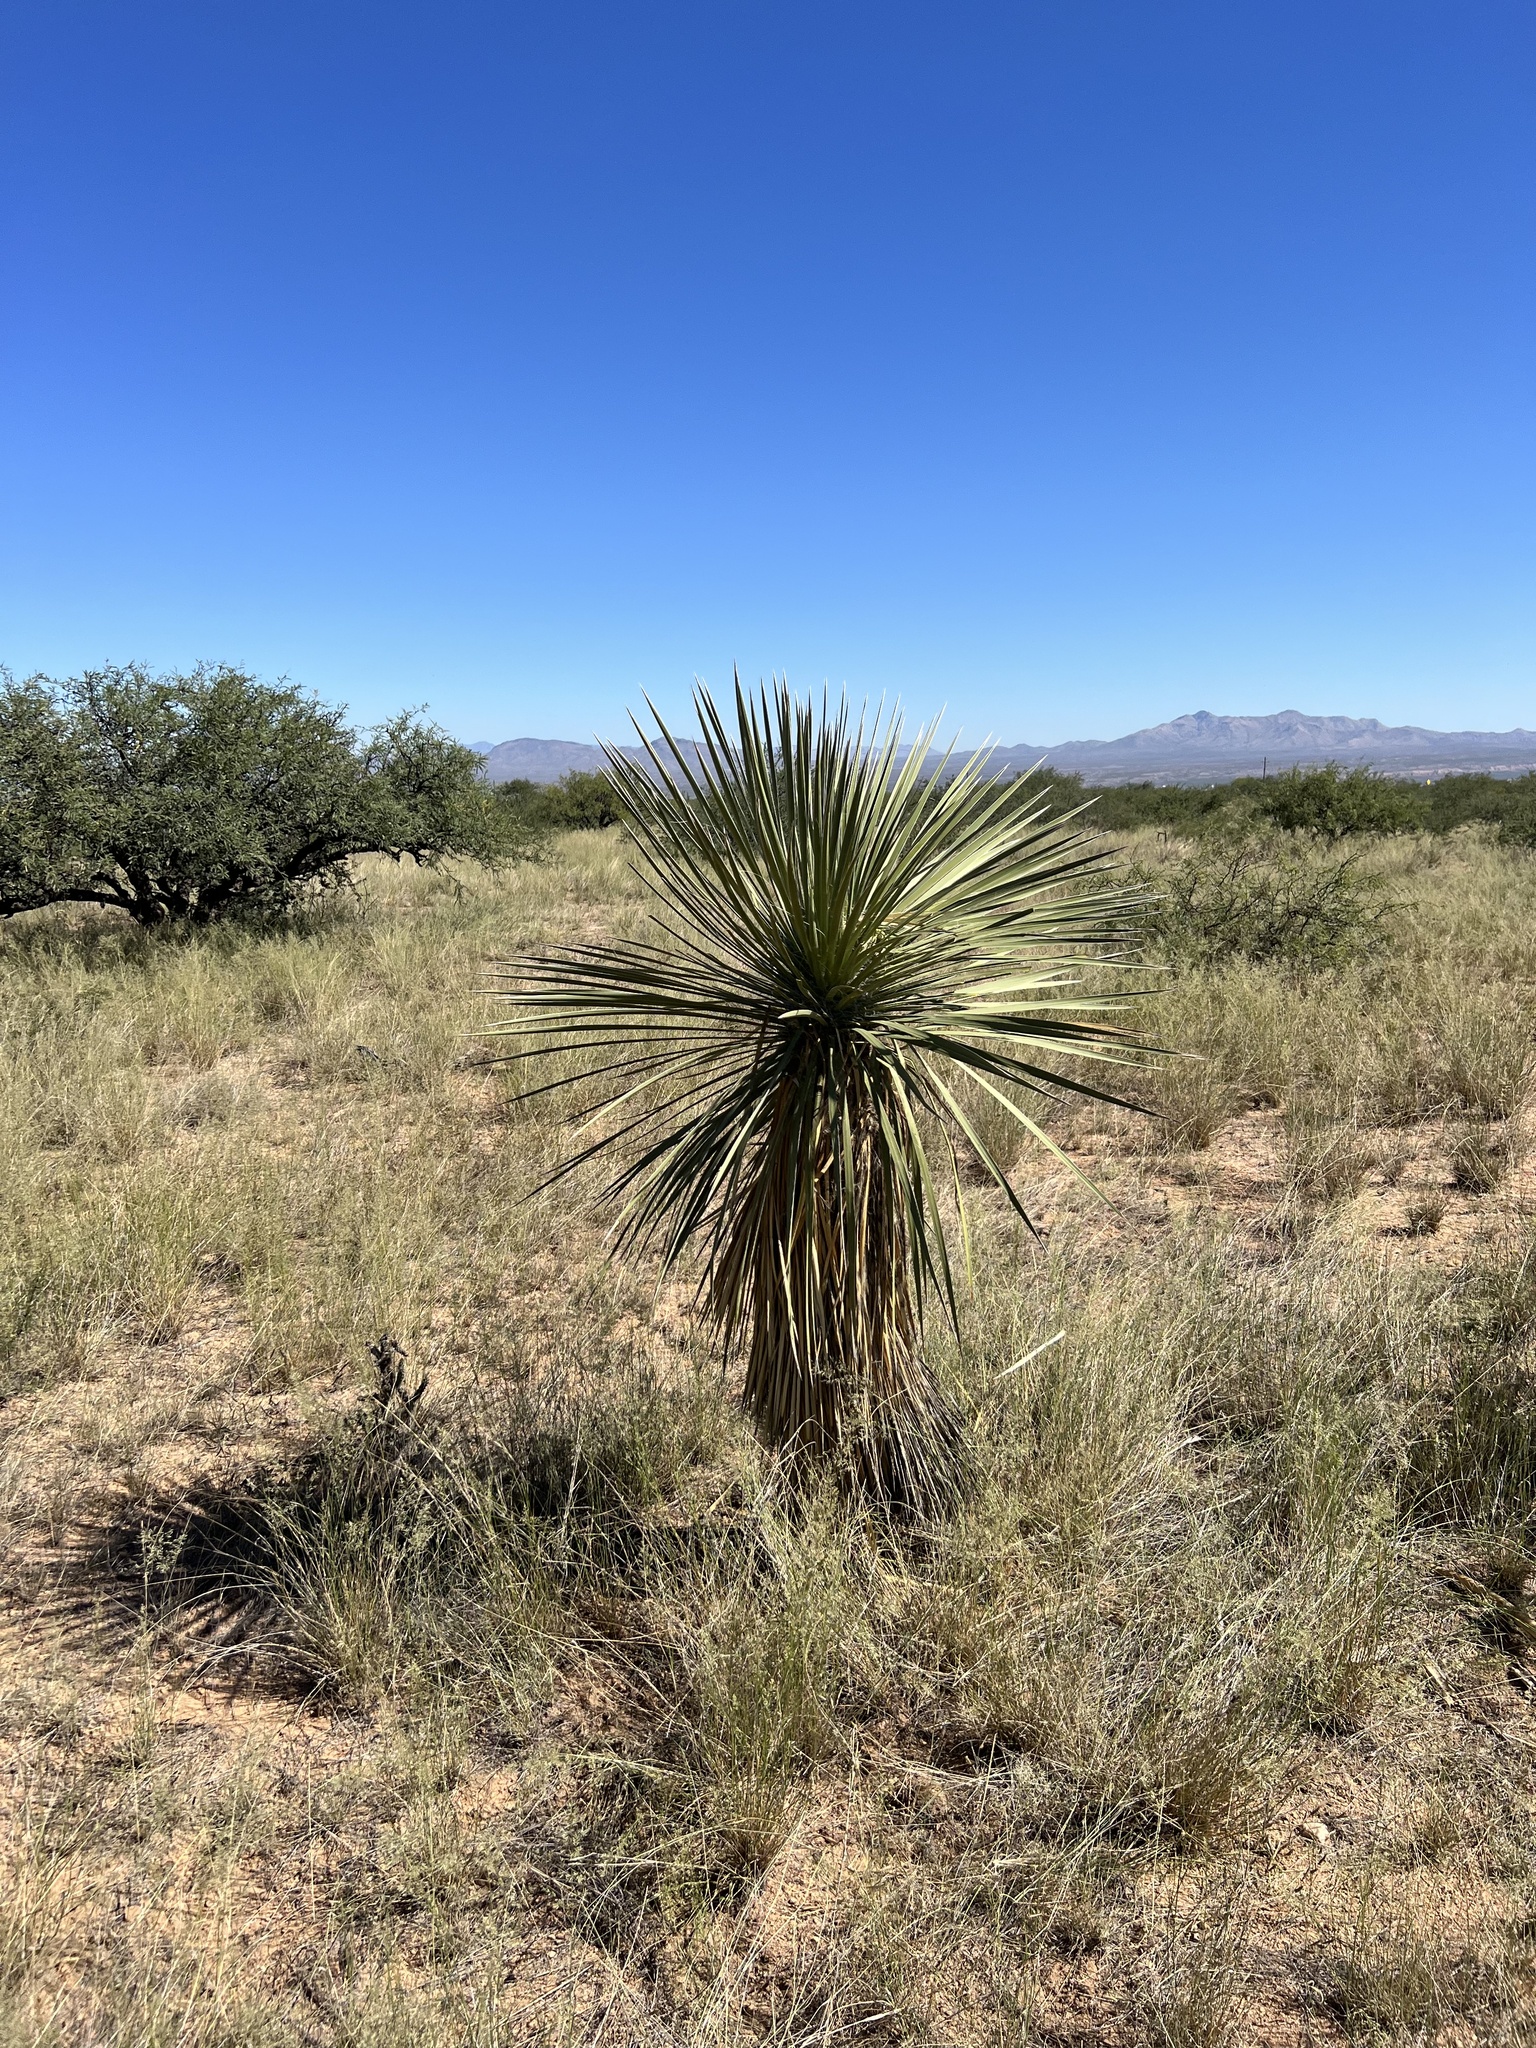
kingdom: Plantae
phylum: Tracheophyta
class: Liliopsida
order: Asparagales
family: Asparagaceae
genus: Yucca
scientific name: Yucca elata
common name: Palmella
